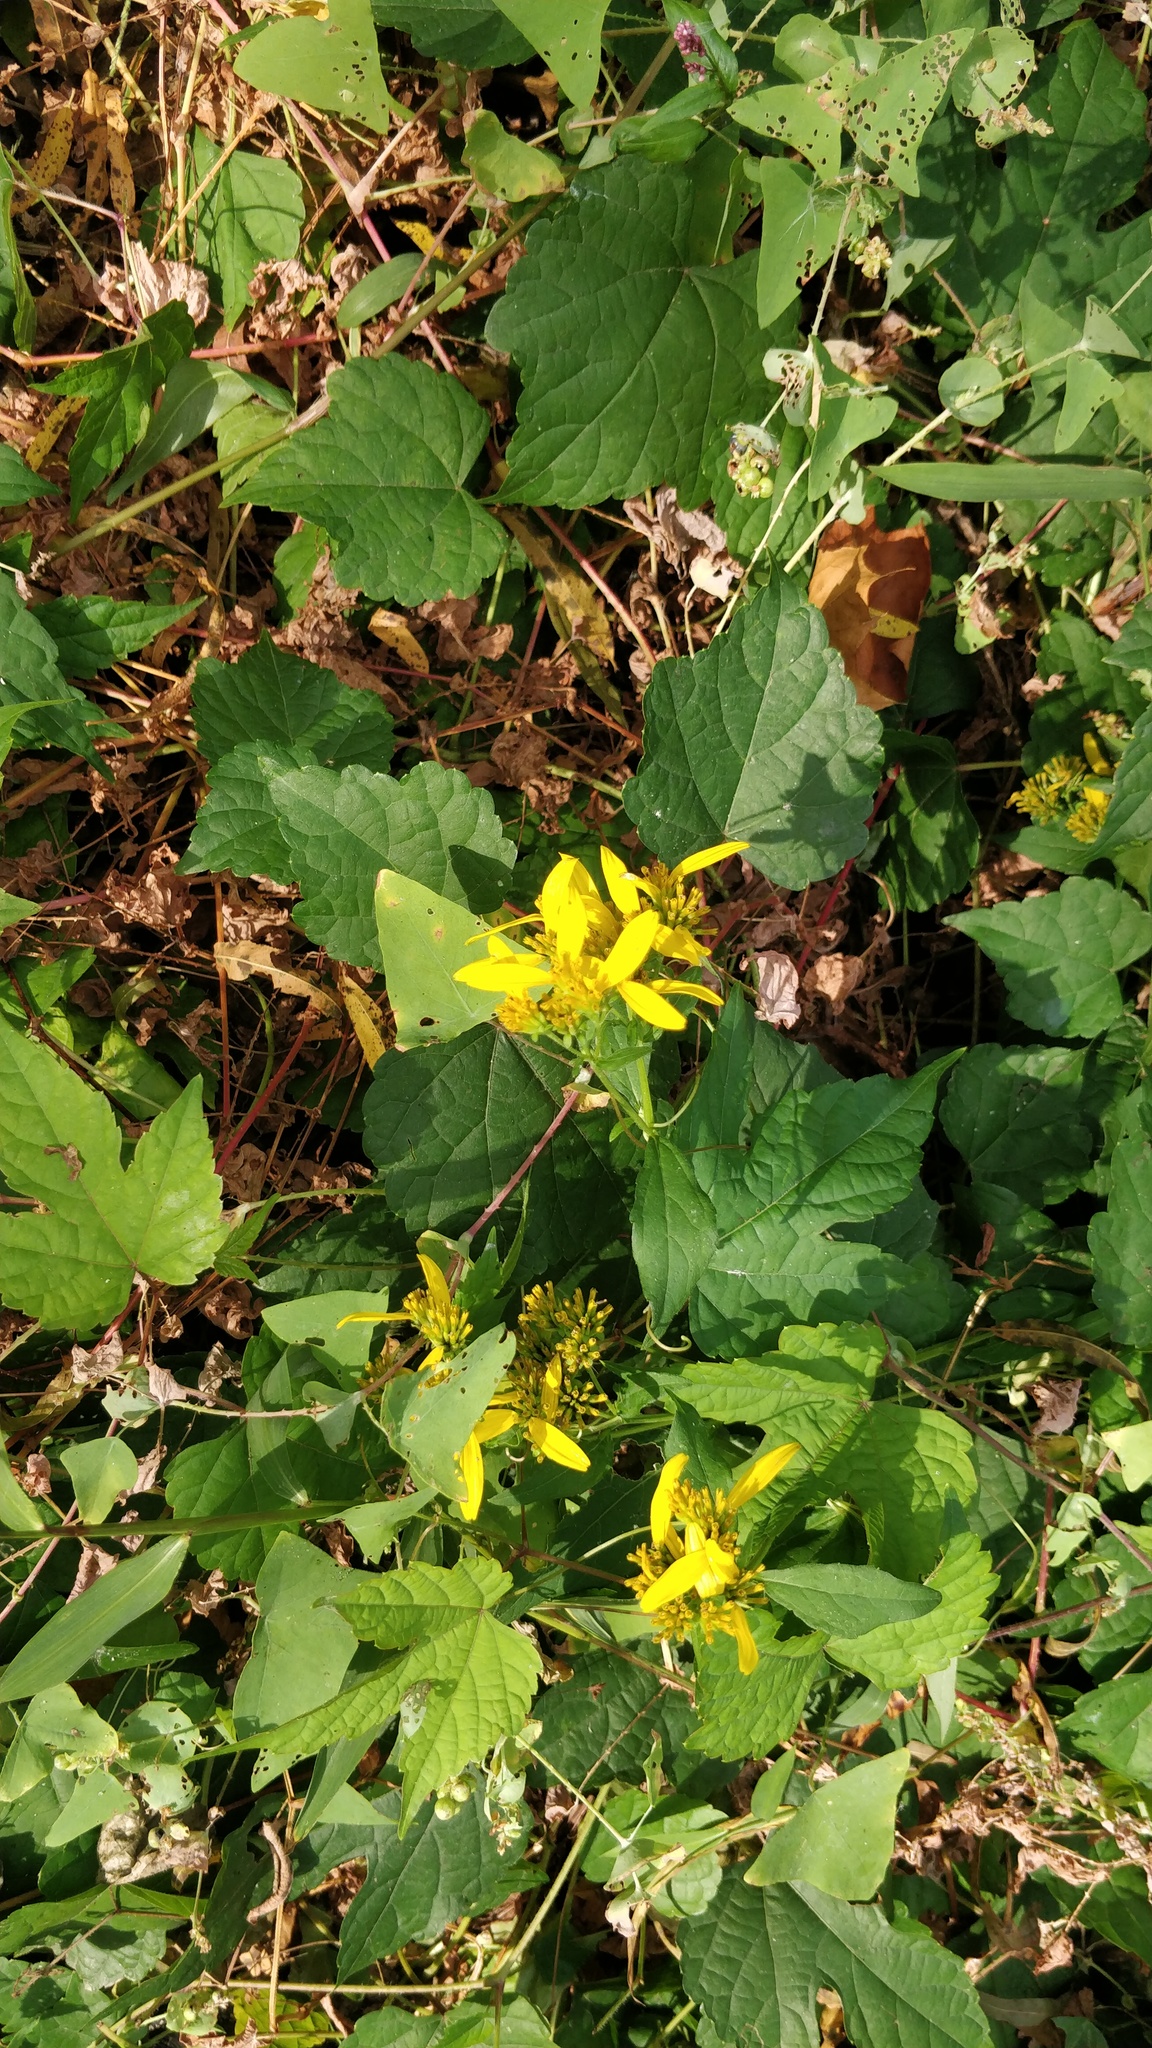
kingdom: Plantae
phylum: Tracheophyta
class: Magnoliopsida
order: Asterales
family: Asteraceae
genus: Verbesina
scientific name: Verbesina occidentalis
